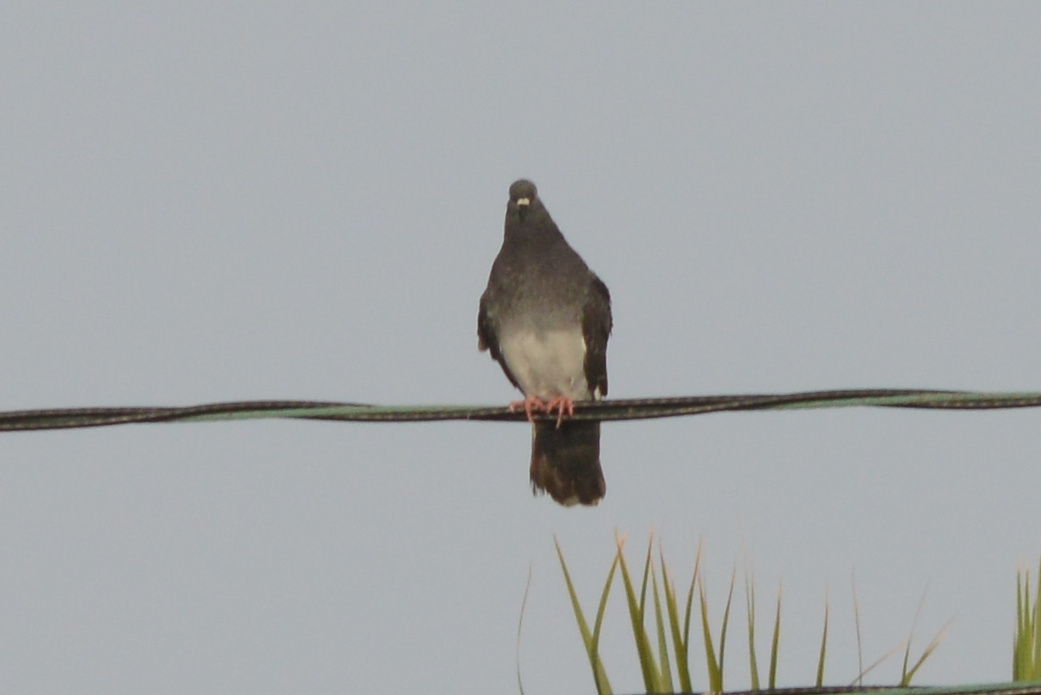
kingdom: Animalia
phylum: Chordata
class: Aves
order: Columbiformes
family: Columbidae
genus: Columba
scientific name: Columba livia
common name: Rock pigeon
